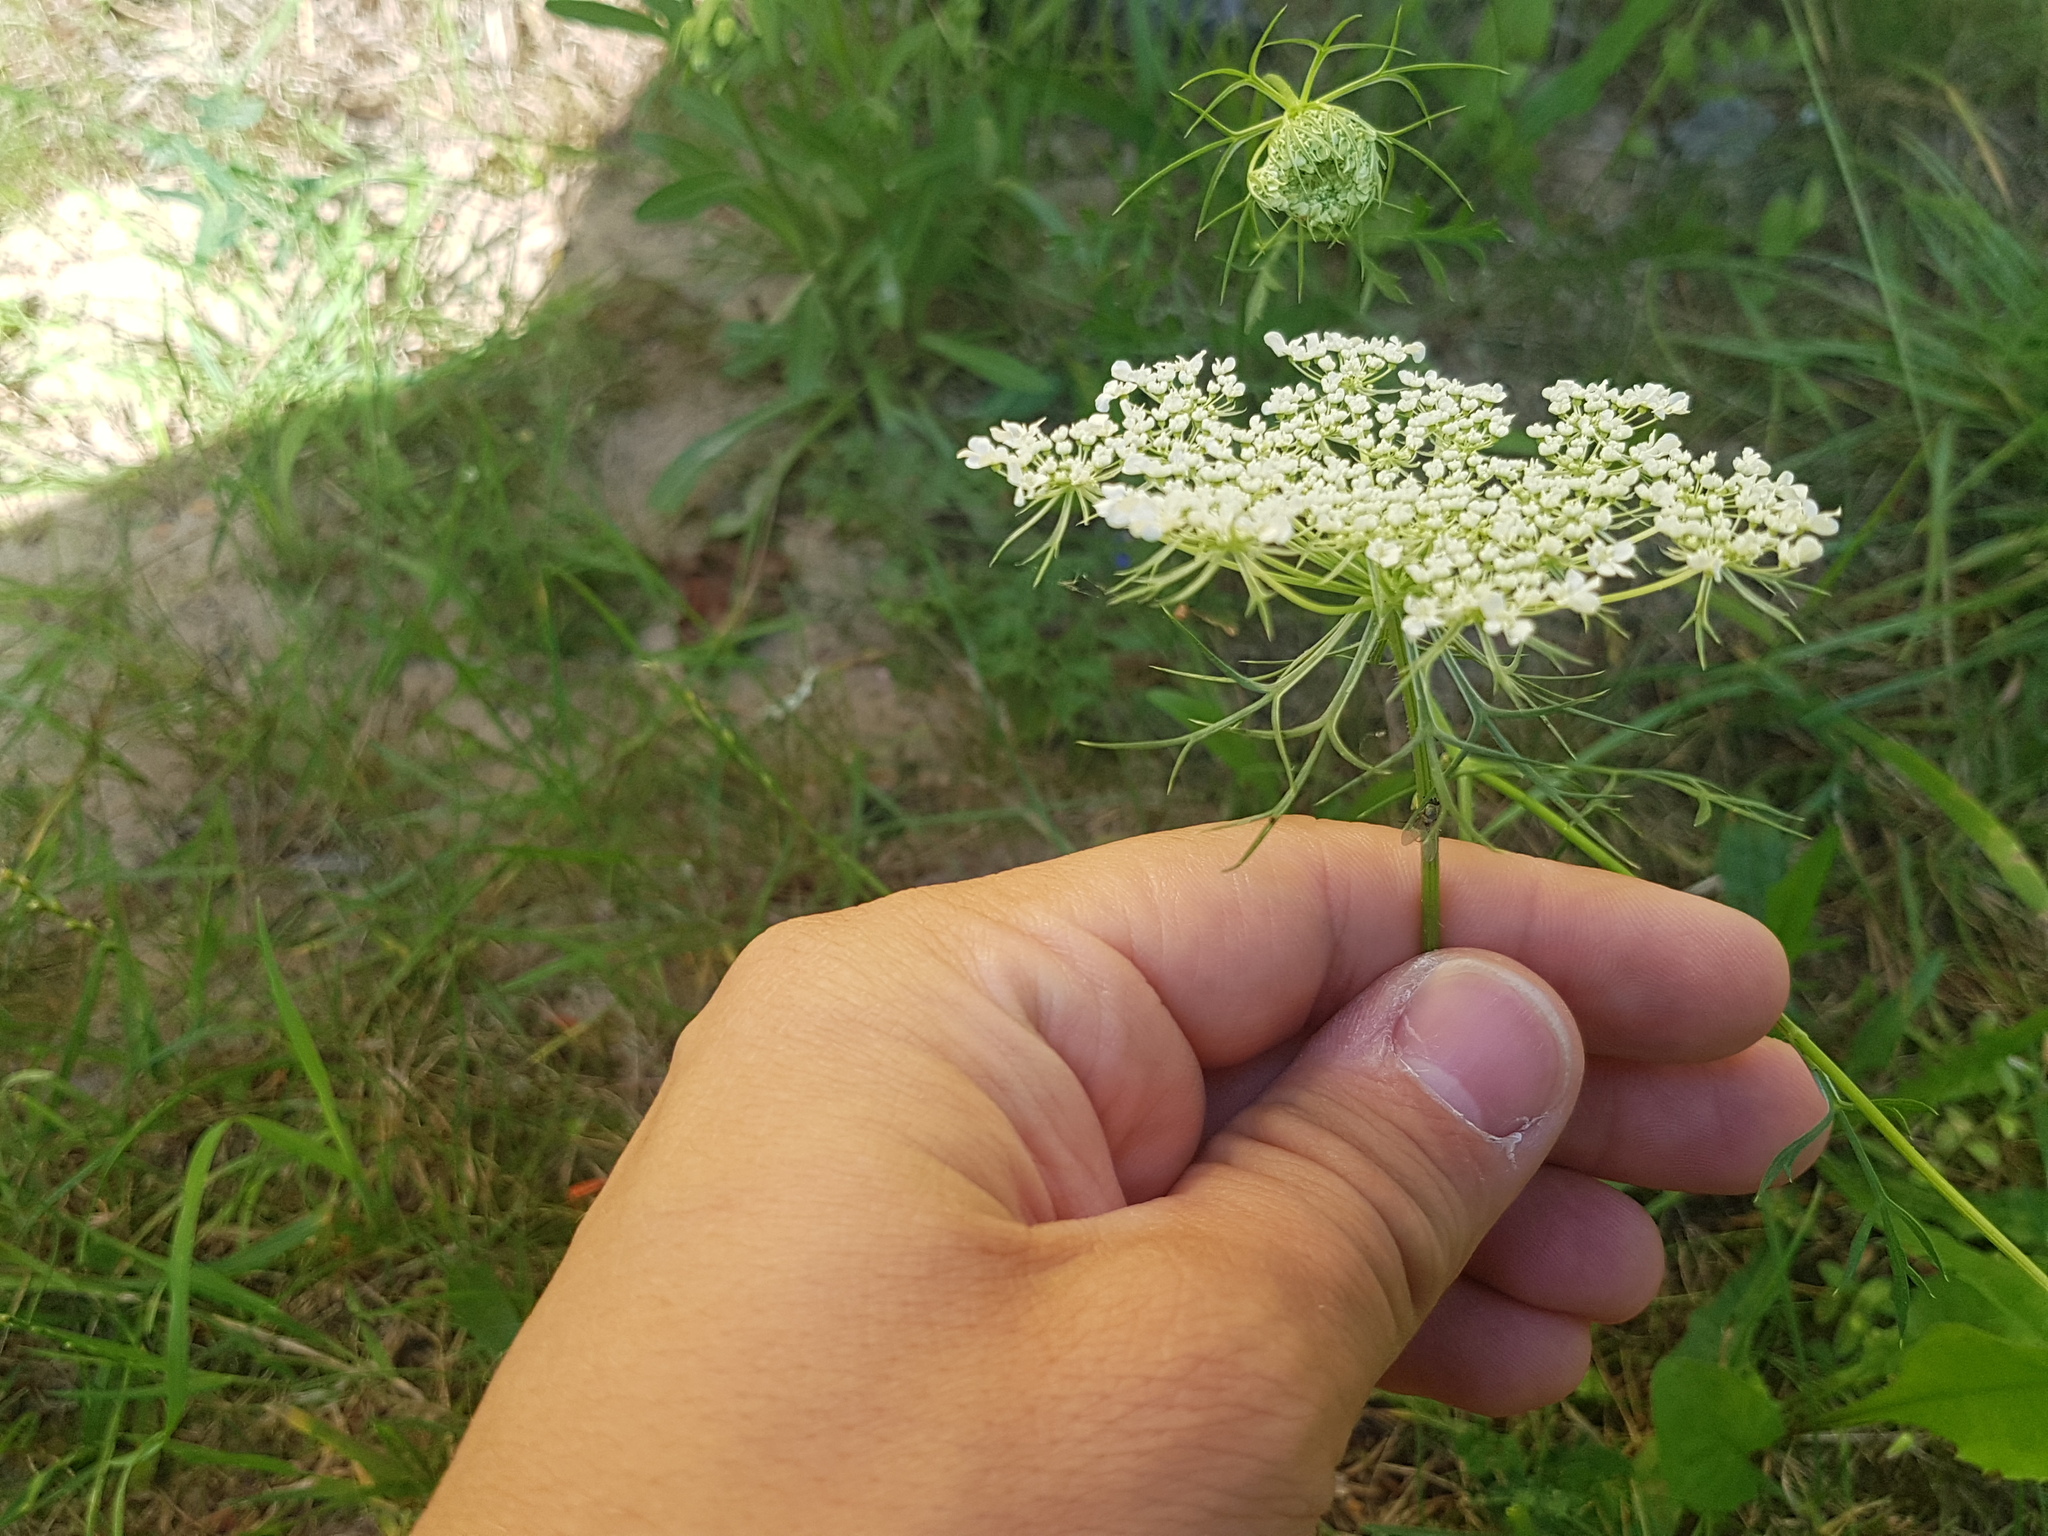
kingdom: Plantae
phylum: Tracheophyta
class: Magnoliopsida
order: Apiales
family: Apiaceae
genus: Daucus
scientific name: Daucus carota
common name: Wild carrot
